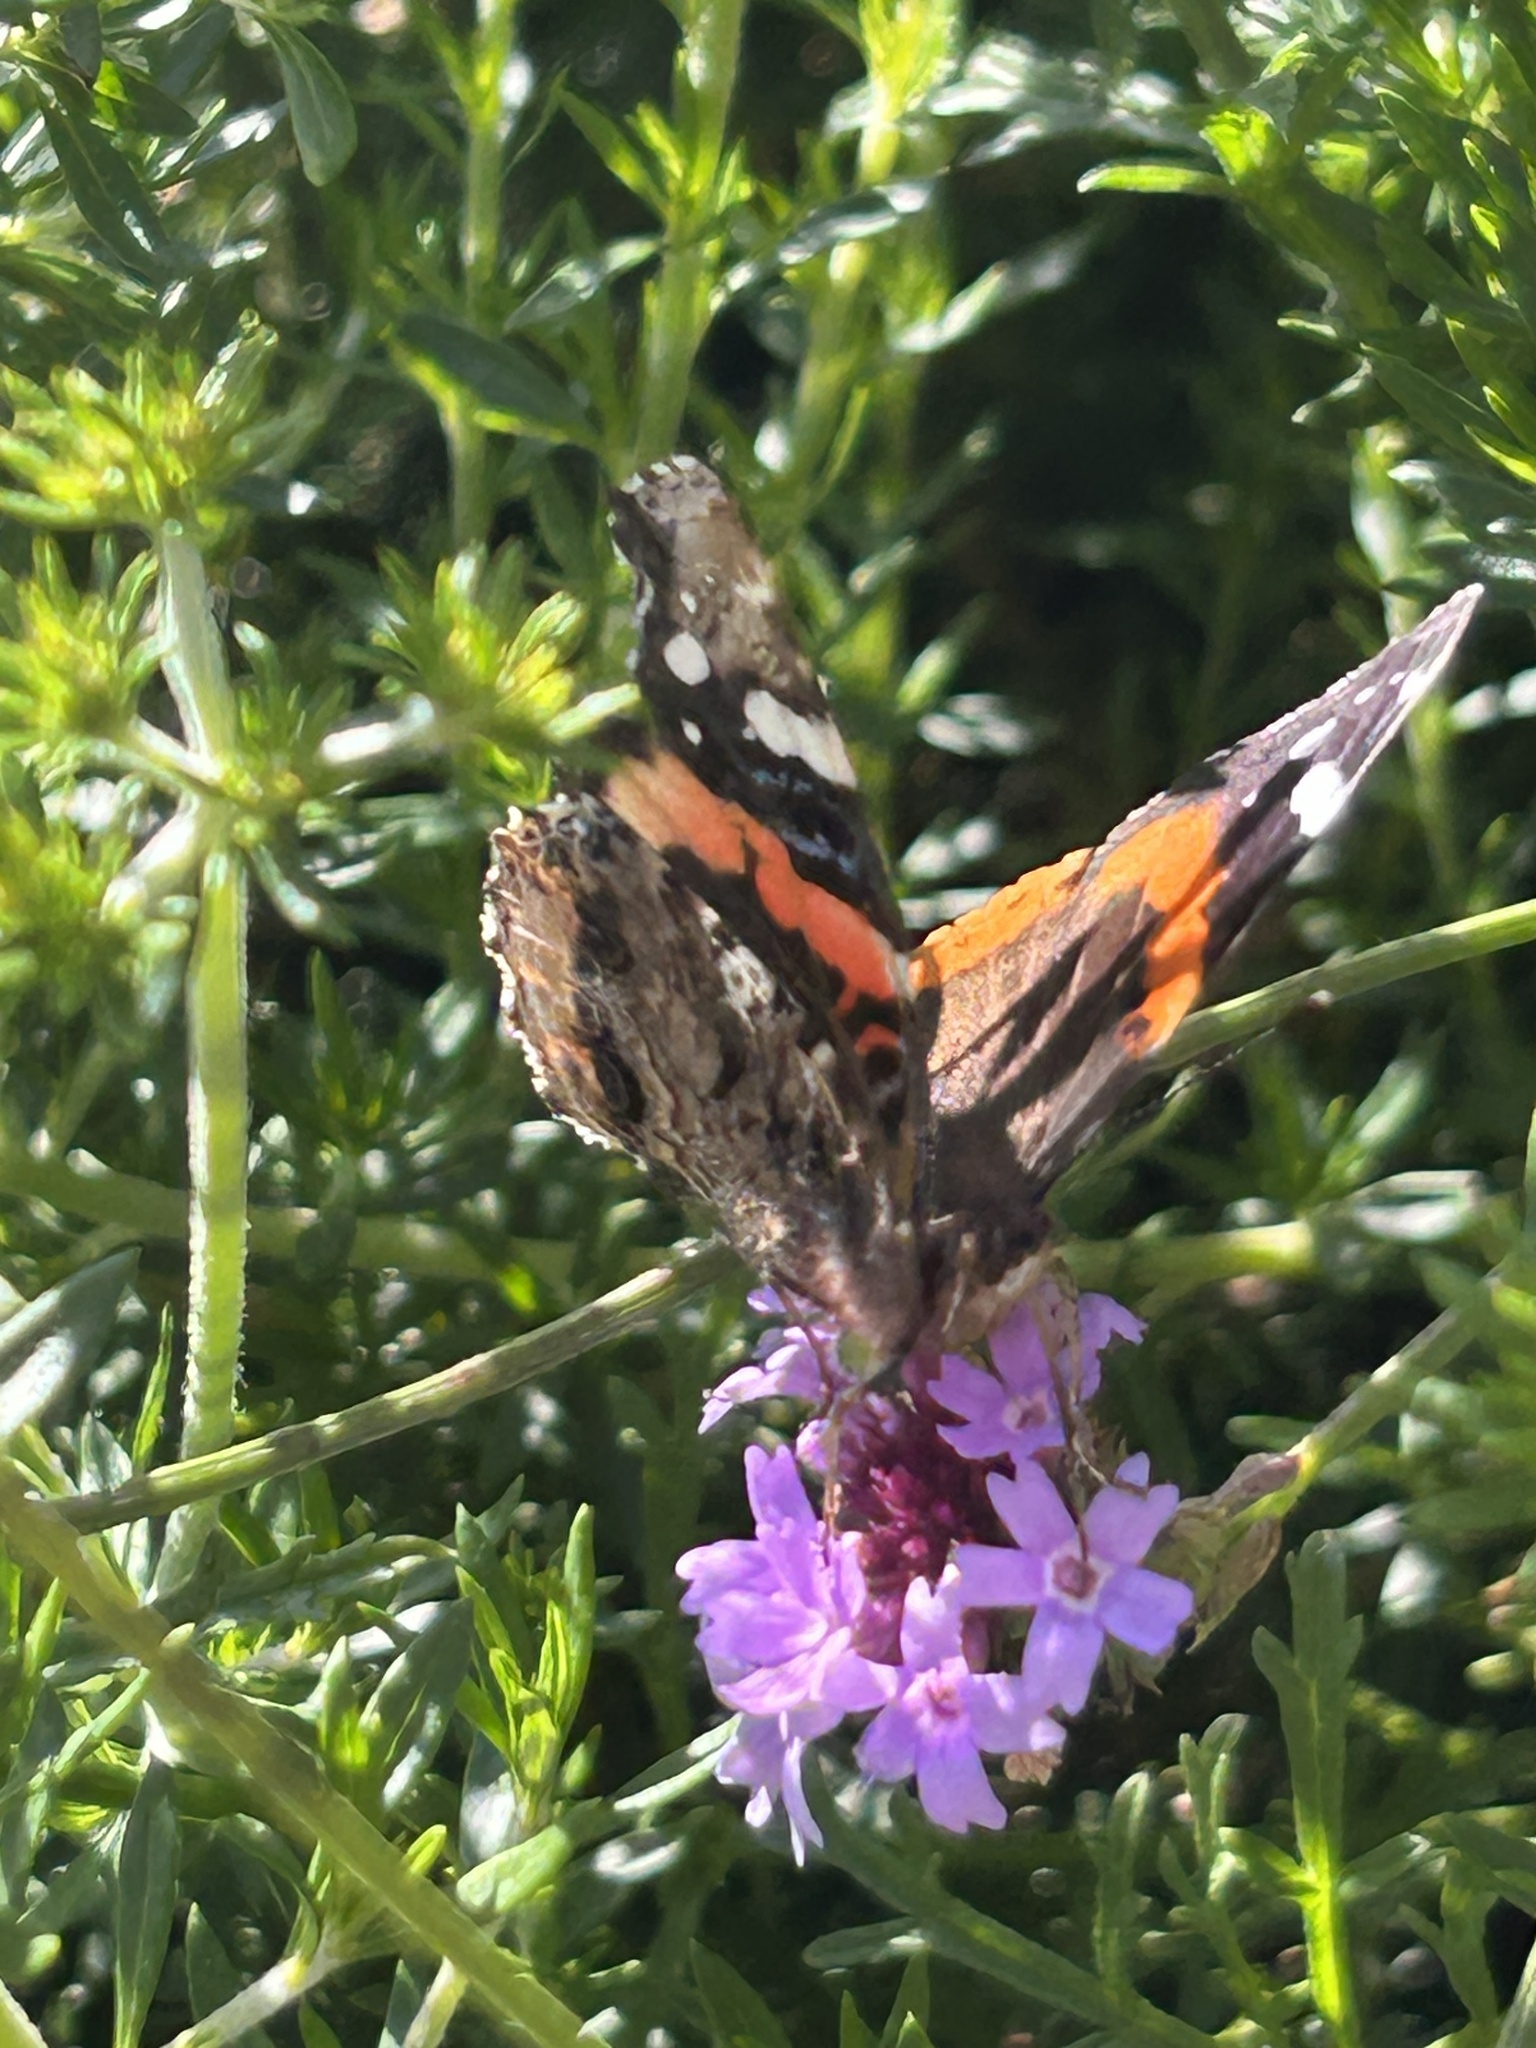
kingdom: Animalia
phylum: Arthropoda
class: Insecta
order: Lepidoptera
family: Nymphalidae
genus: Vanessa
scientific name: Vanessa atalanta
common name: Red admiral
